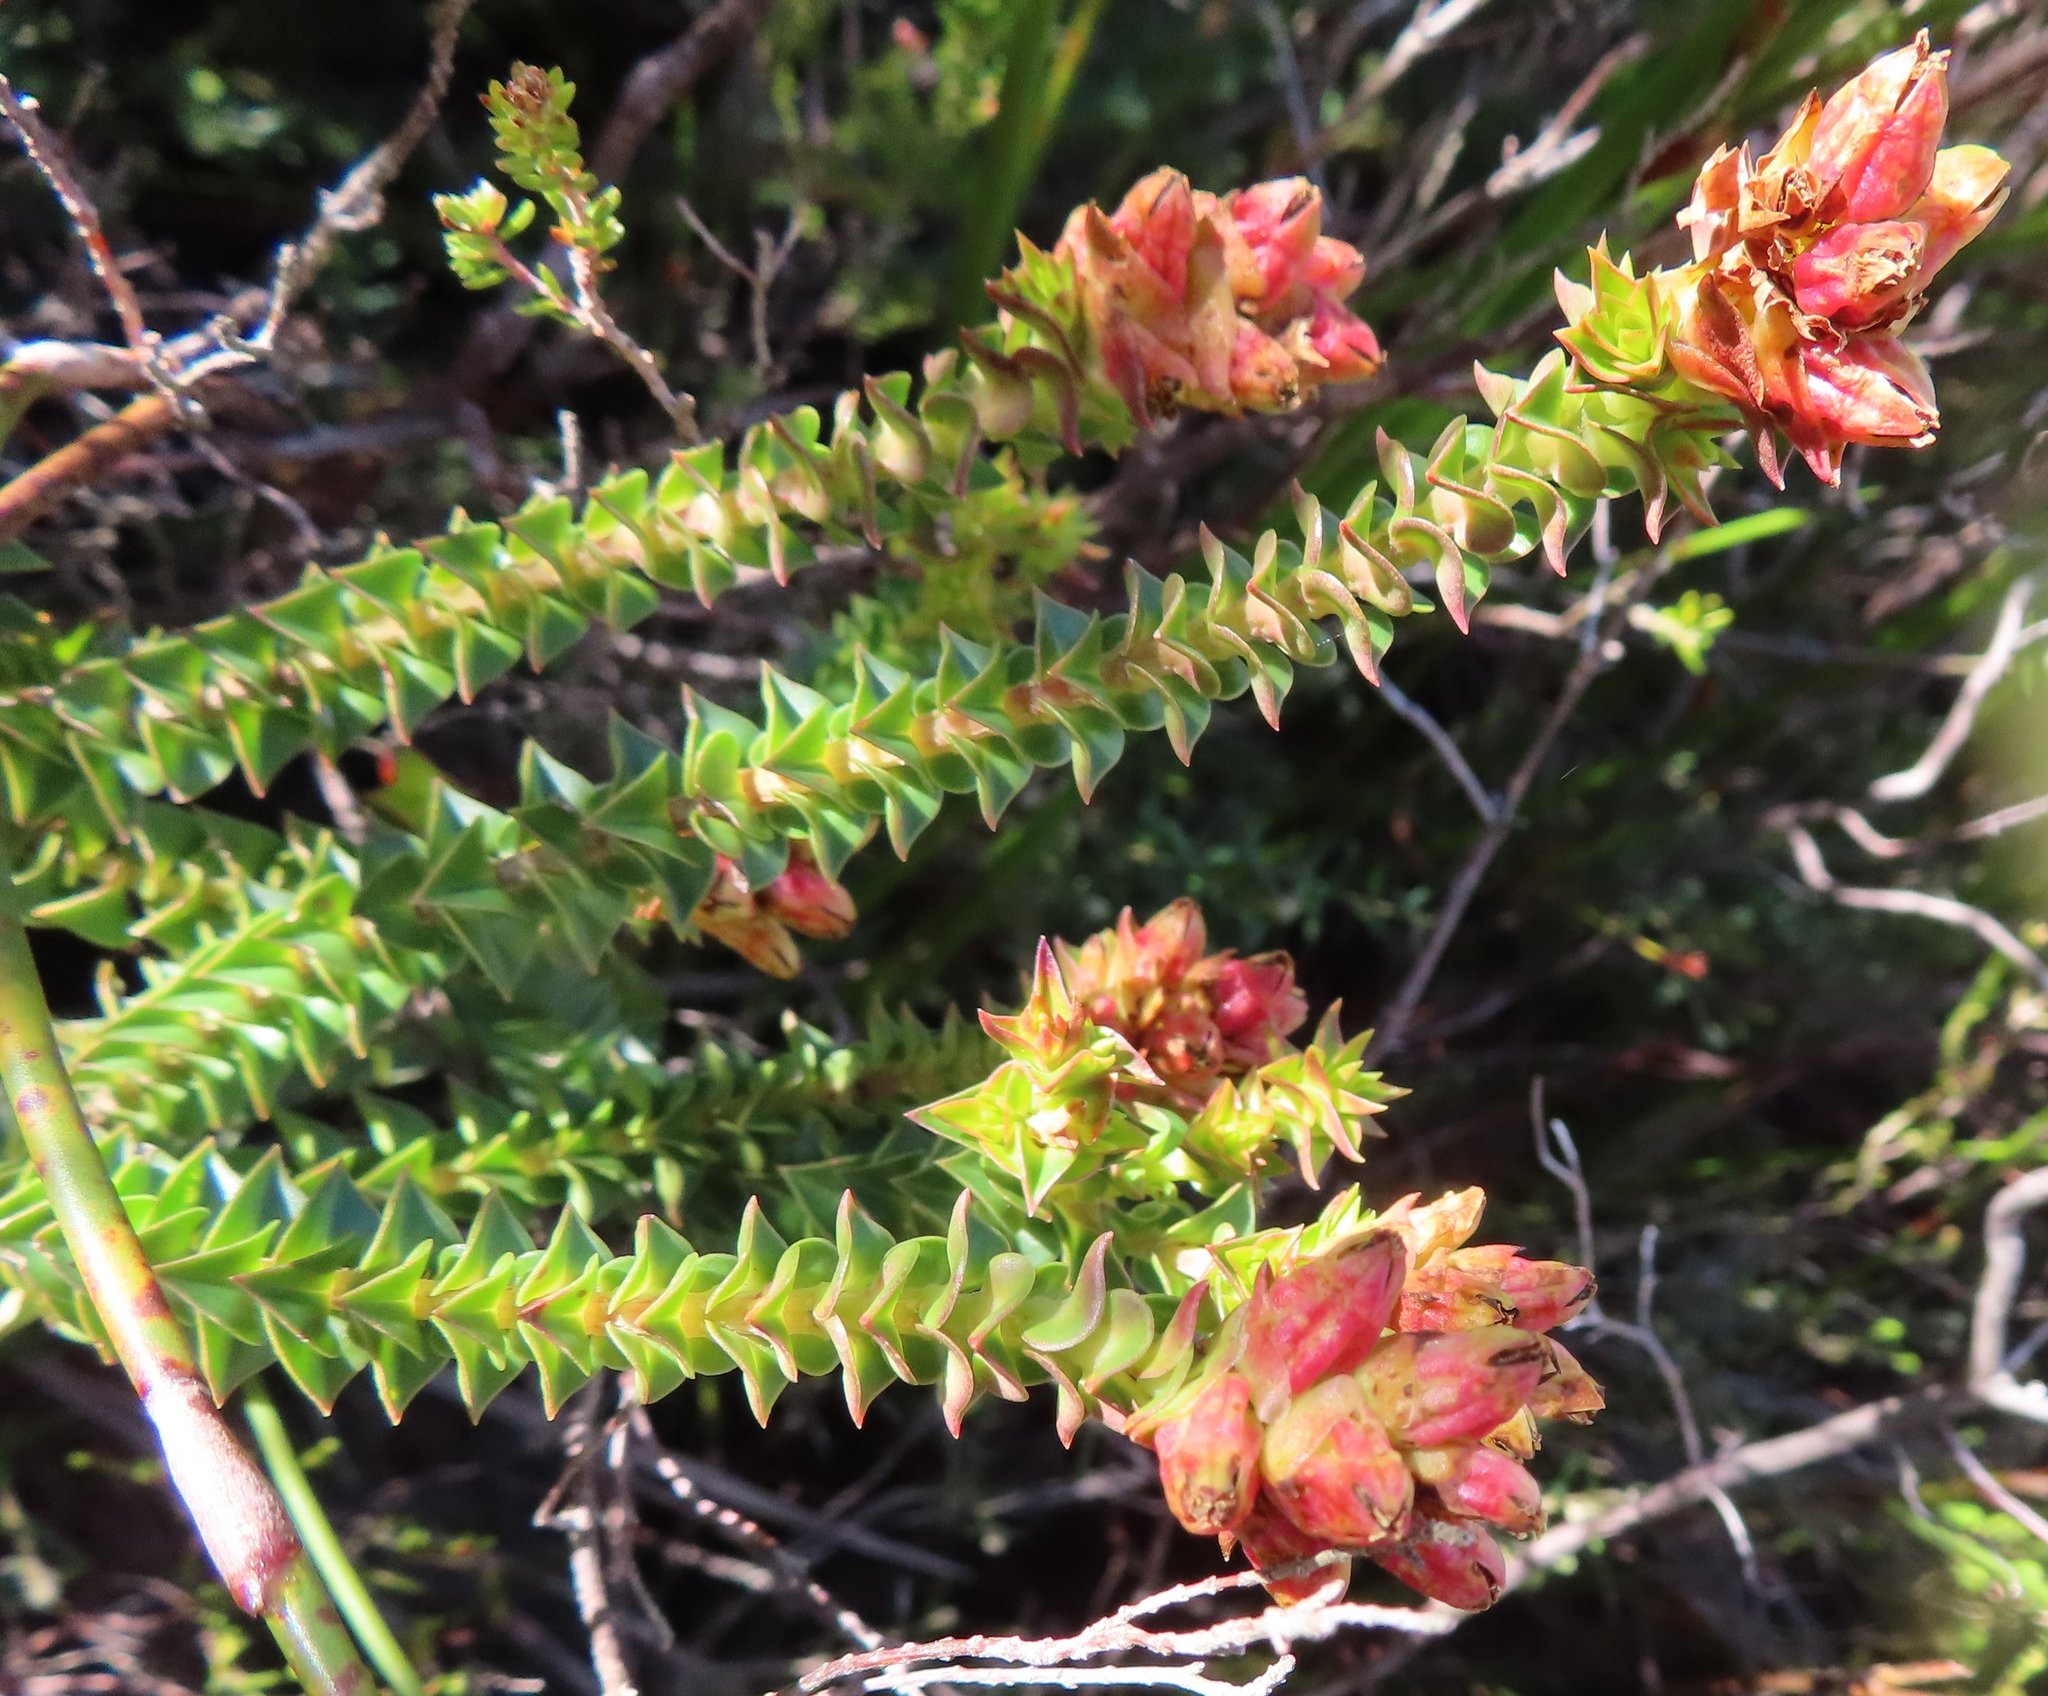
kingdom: Plantae
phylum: Tracheophyta
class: Magnoliopsida
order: Myrtales
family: Penaeaceae
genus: Penaea
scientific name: Penaea mucronata
